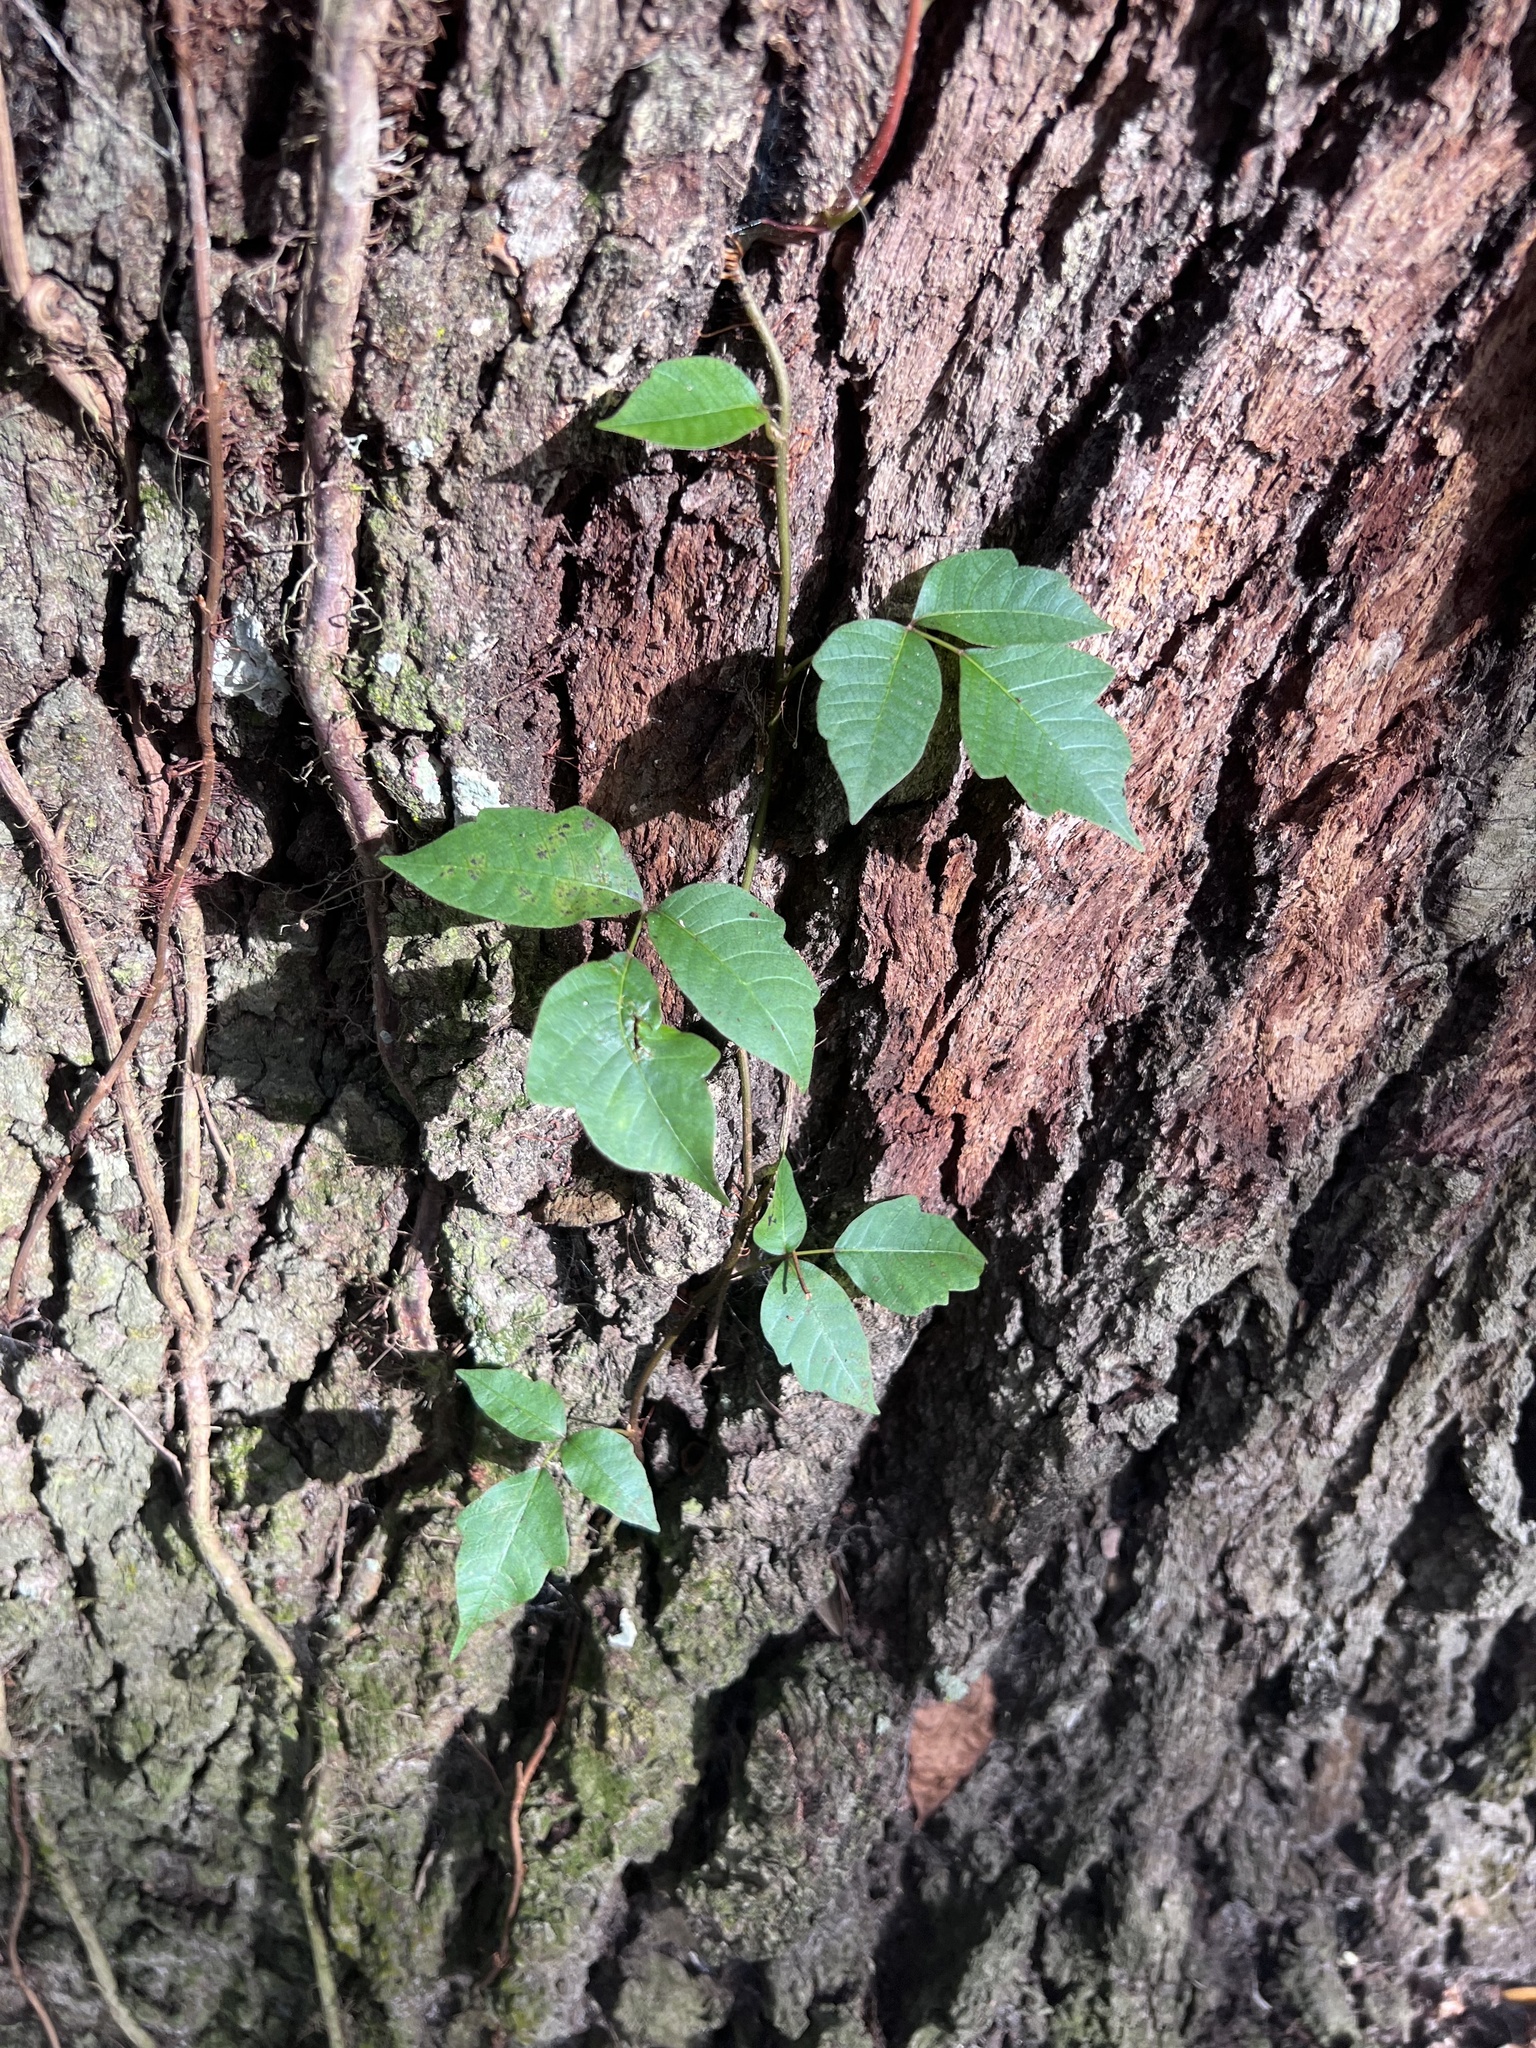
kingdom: Plantae
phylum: Tracheophyta
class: Magnoliopsida
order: Sapindales
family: Anacardiaceae
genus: Toxicodendron
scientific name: Toxicodendron radicans
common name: Poison ivy
